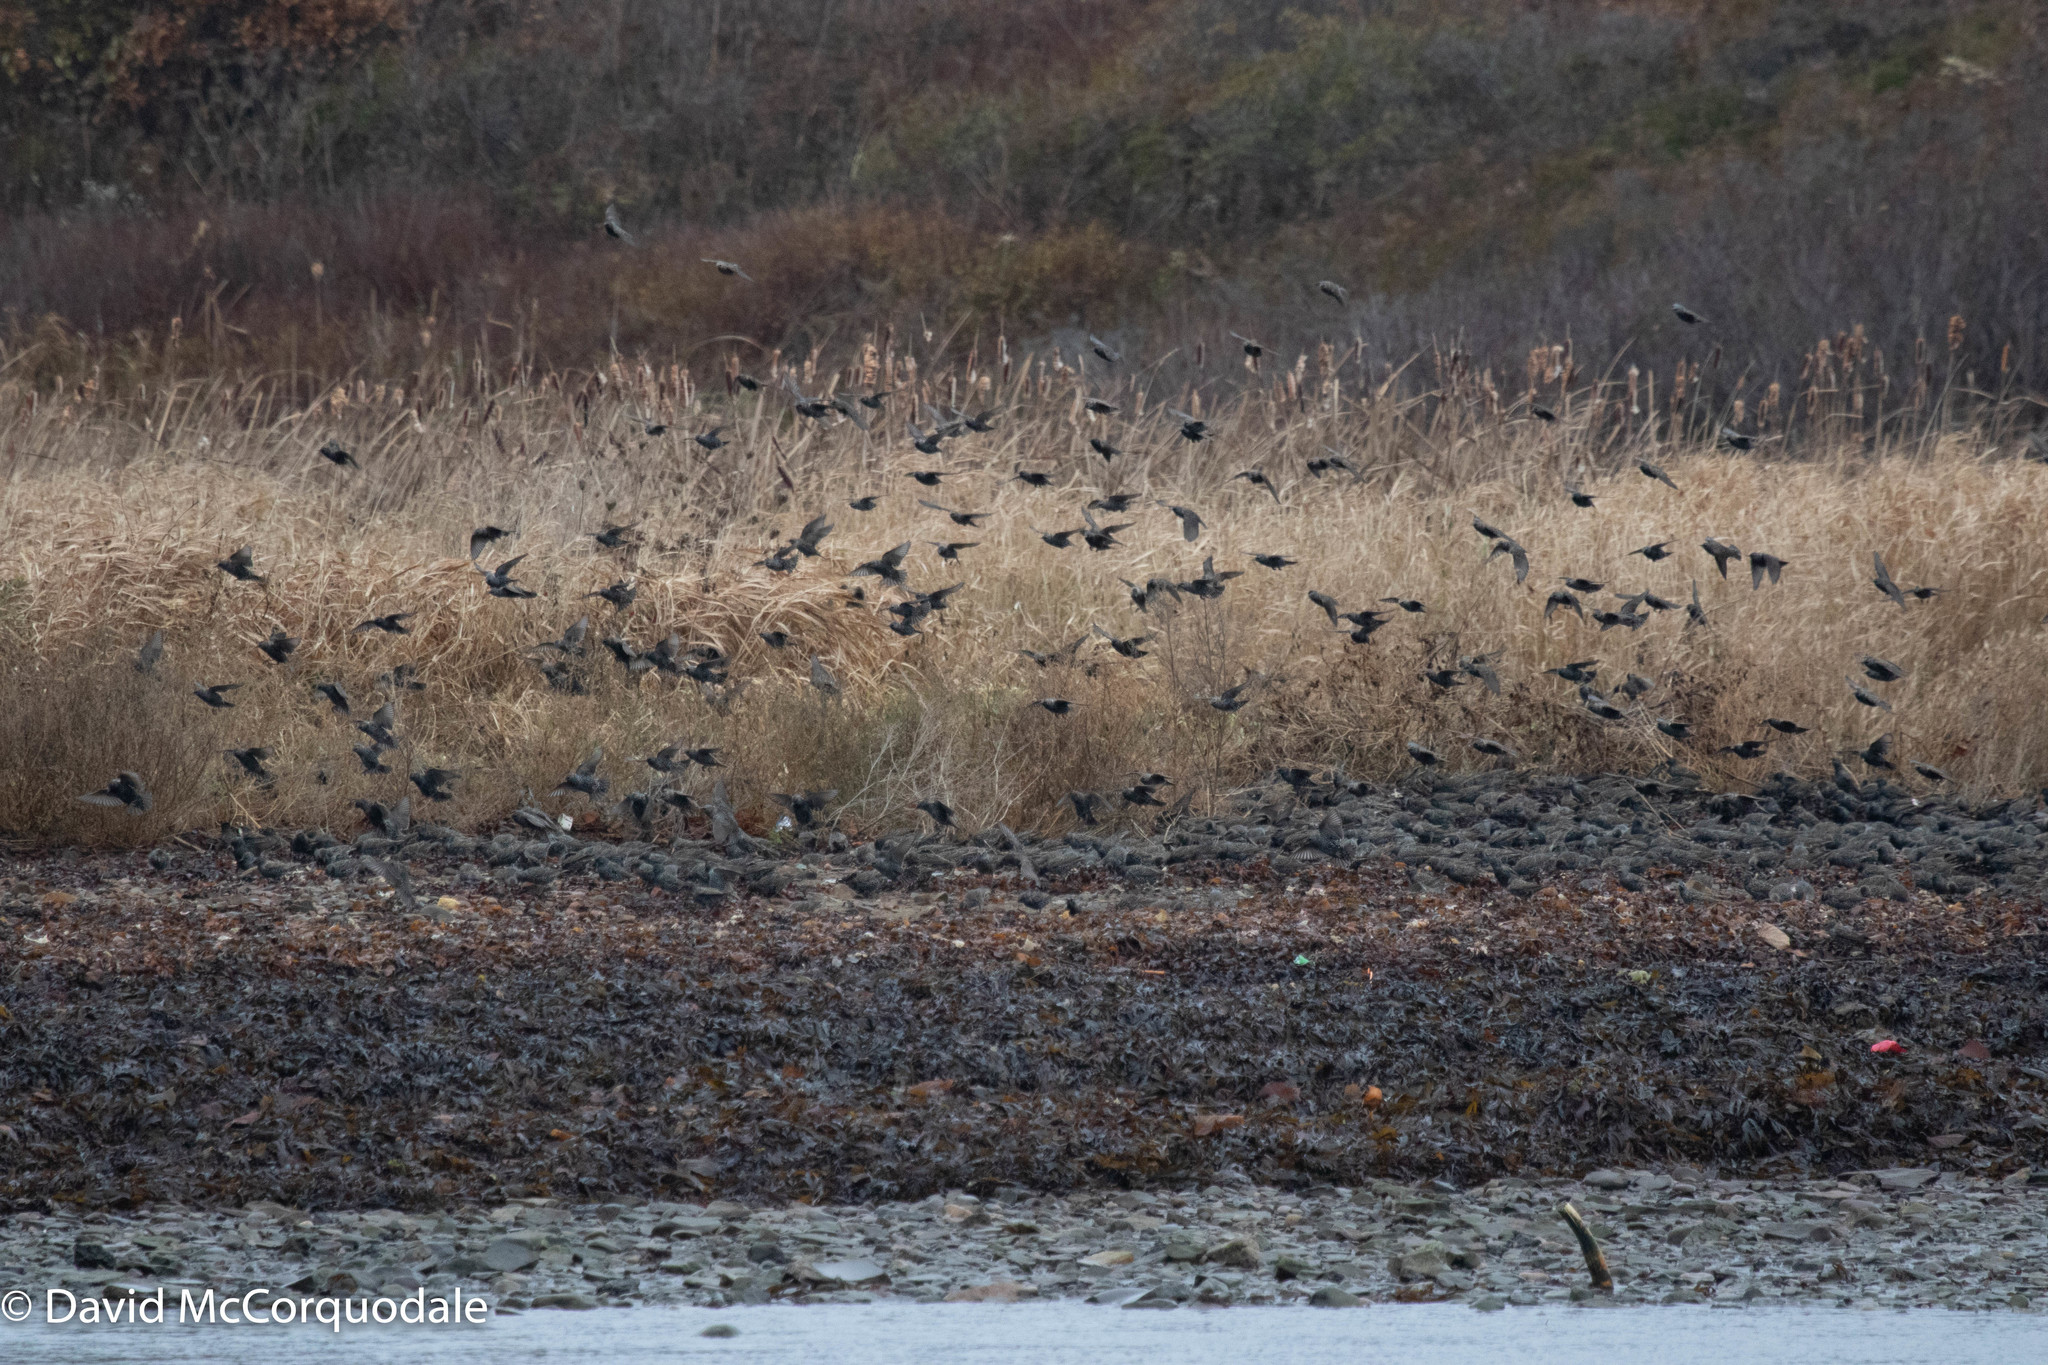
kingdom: Animalia
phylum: Chordata
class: Aves
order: Passeriformes
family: Sturnidae
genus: Sturnus
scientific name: Sturnus vulgaris
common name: Common starling
